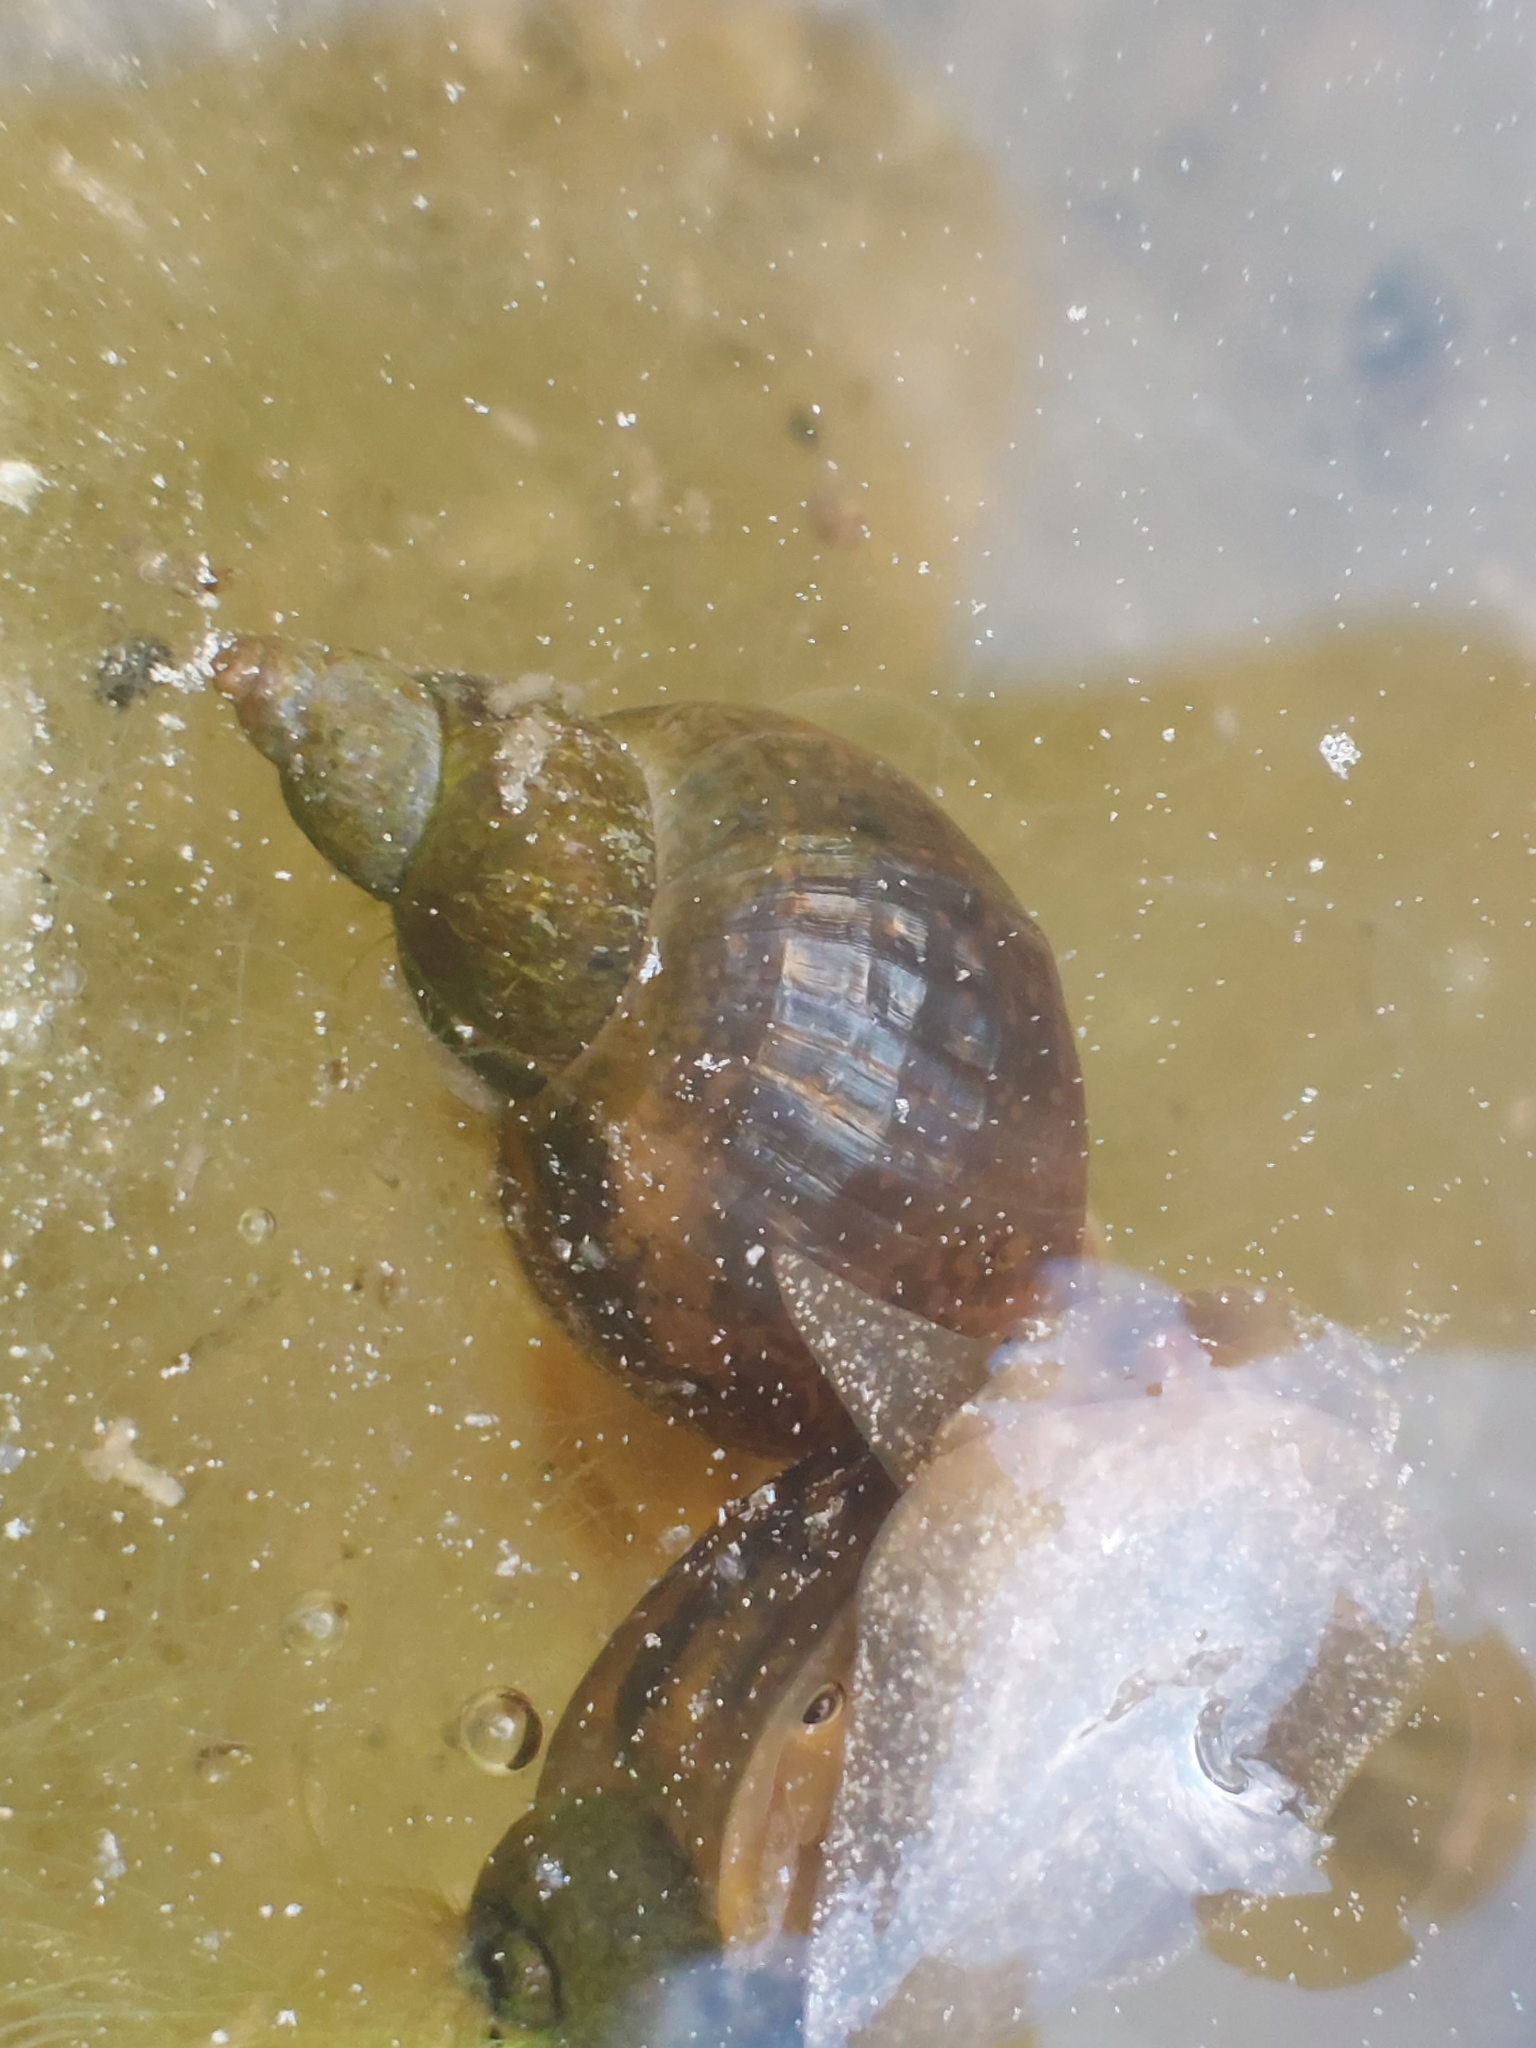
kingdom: Animalia
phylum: Mollusca
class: Gastropoda
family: Lymnaeidae
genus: Lymnaea
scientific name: Lymnaea stagnalis
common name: Great pond snail
